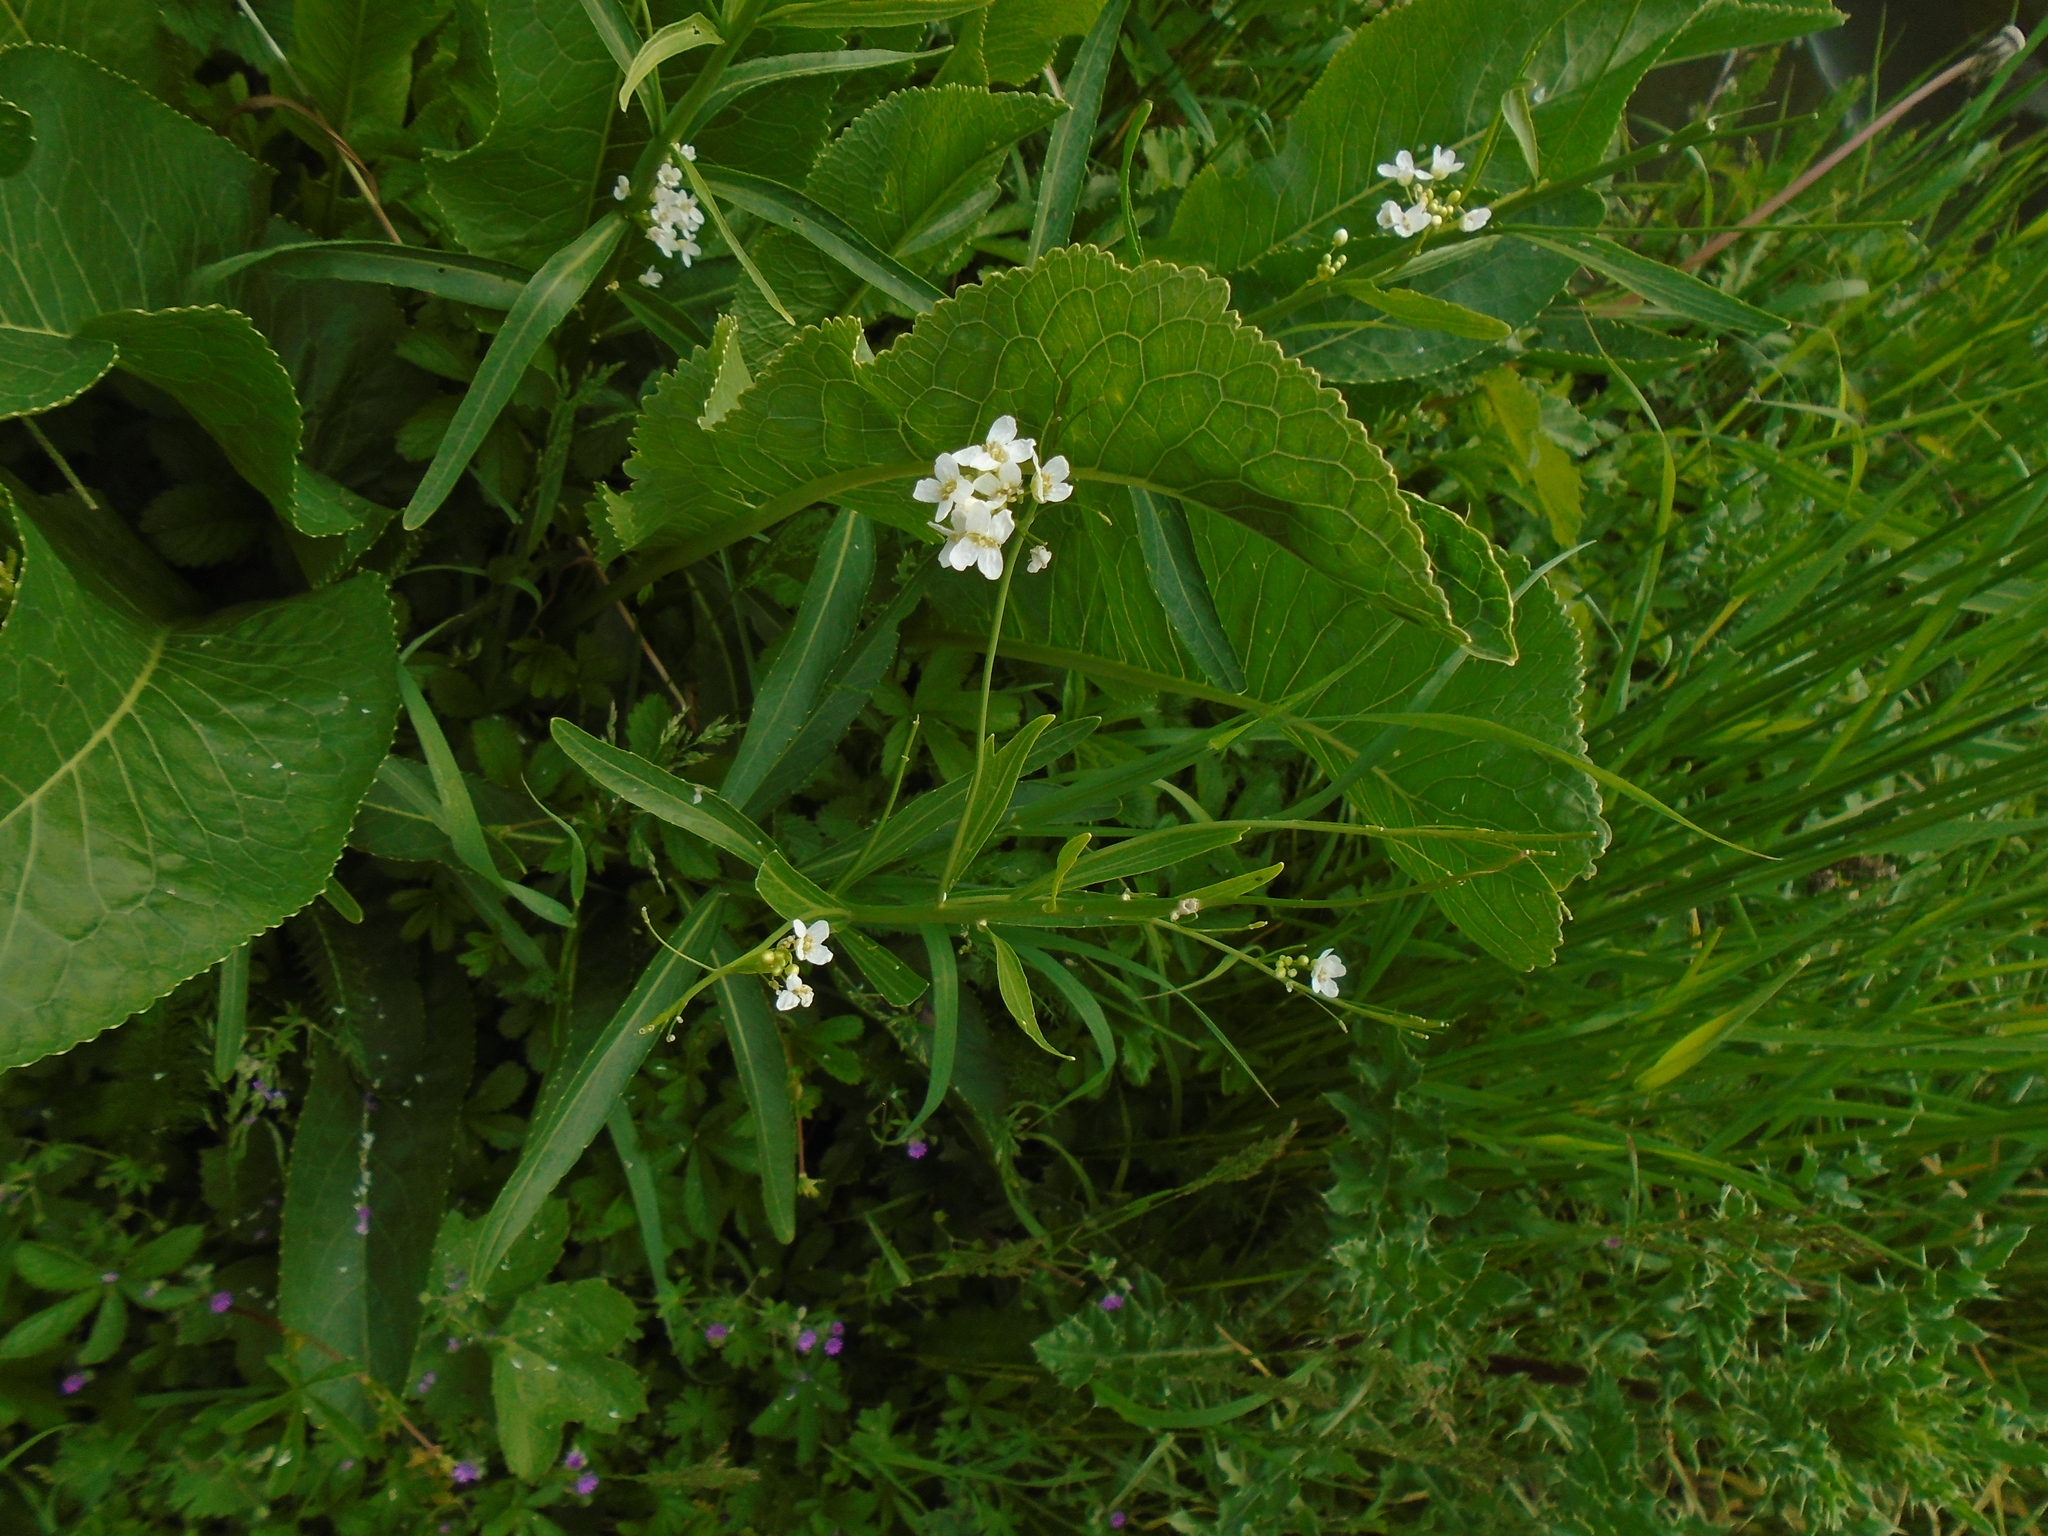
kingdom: Plantae
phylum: Tracheophyta
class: Magnoliopsida
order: Brassicales
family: Brassicaceae
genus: Armoracia
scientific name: Armoracia rusticana
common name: Horseradish
